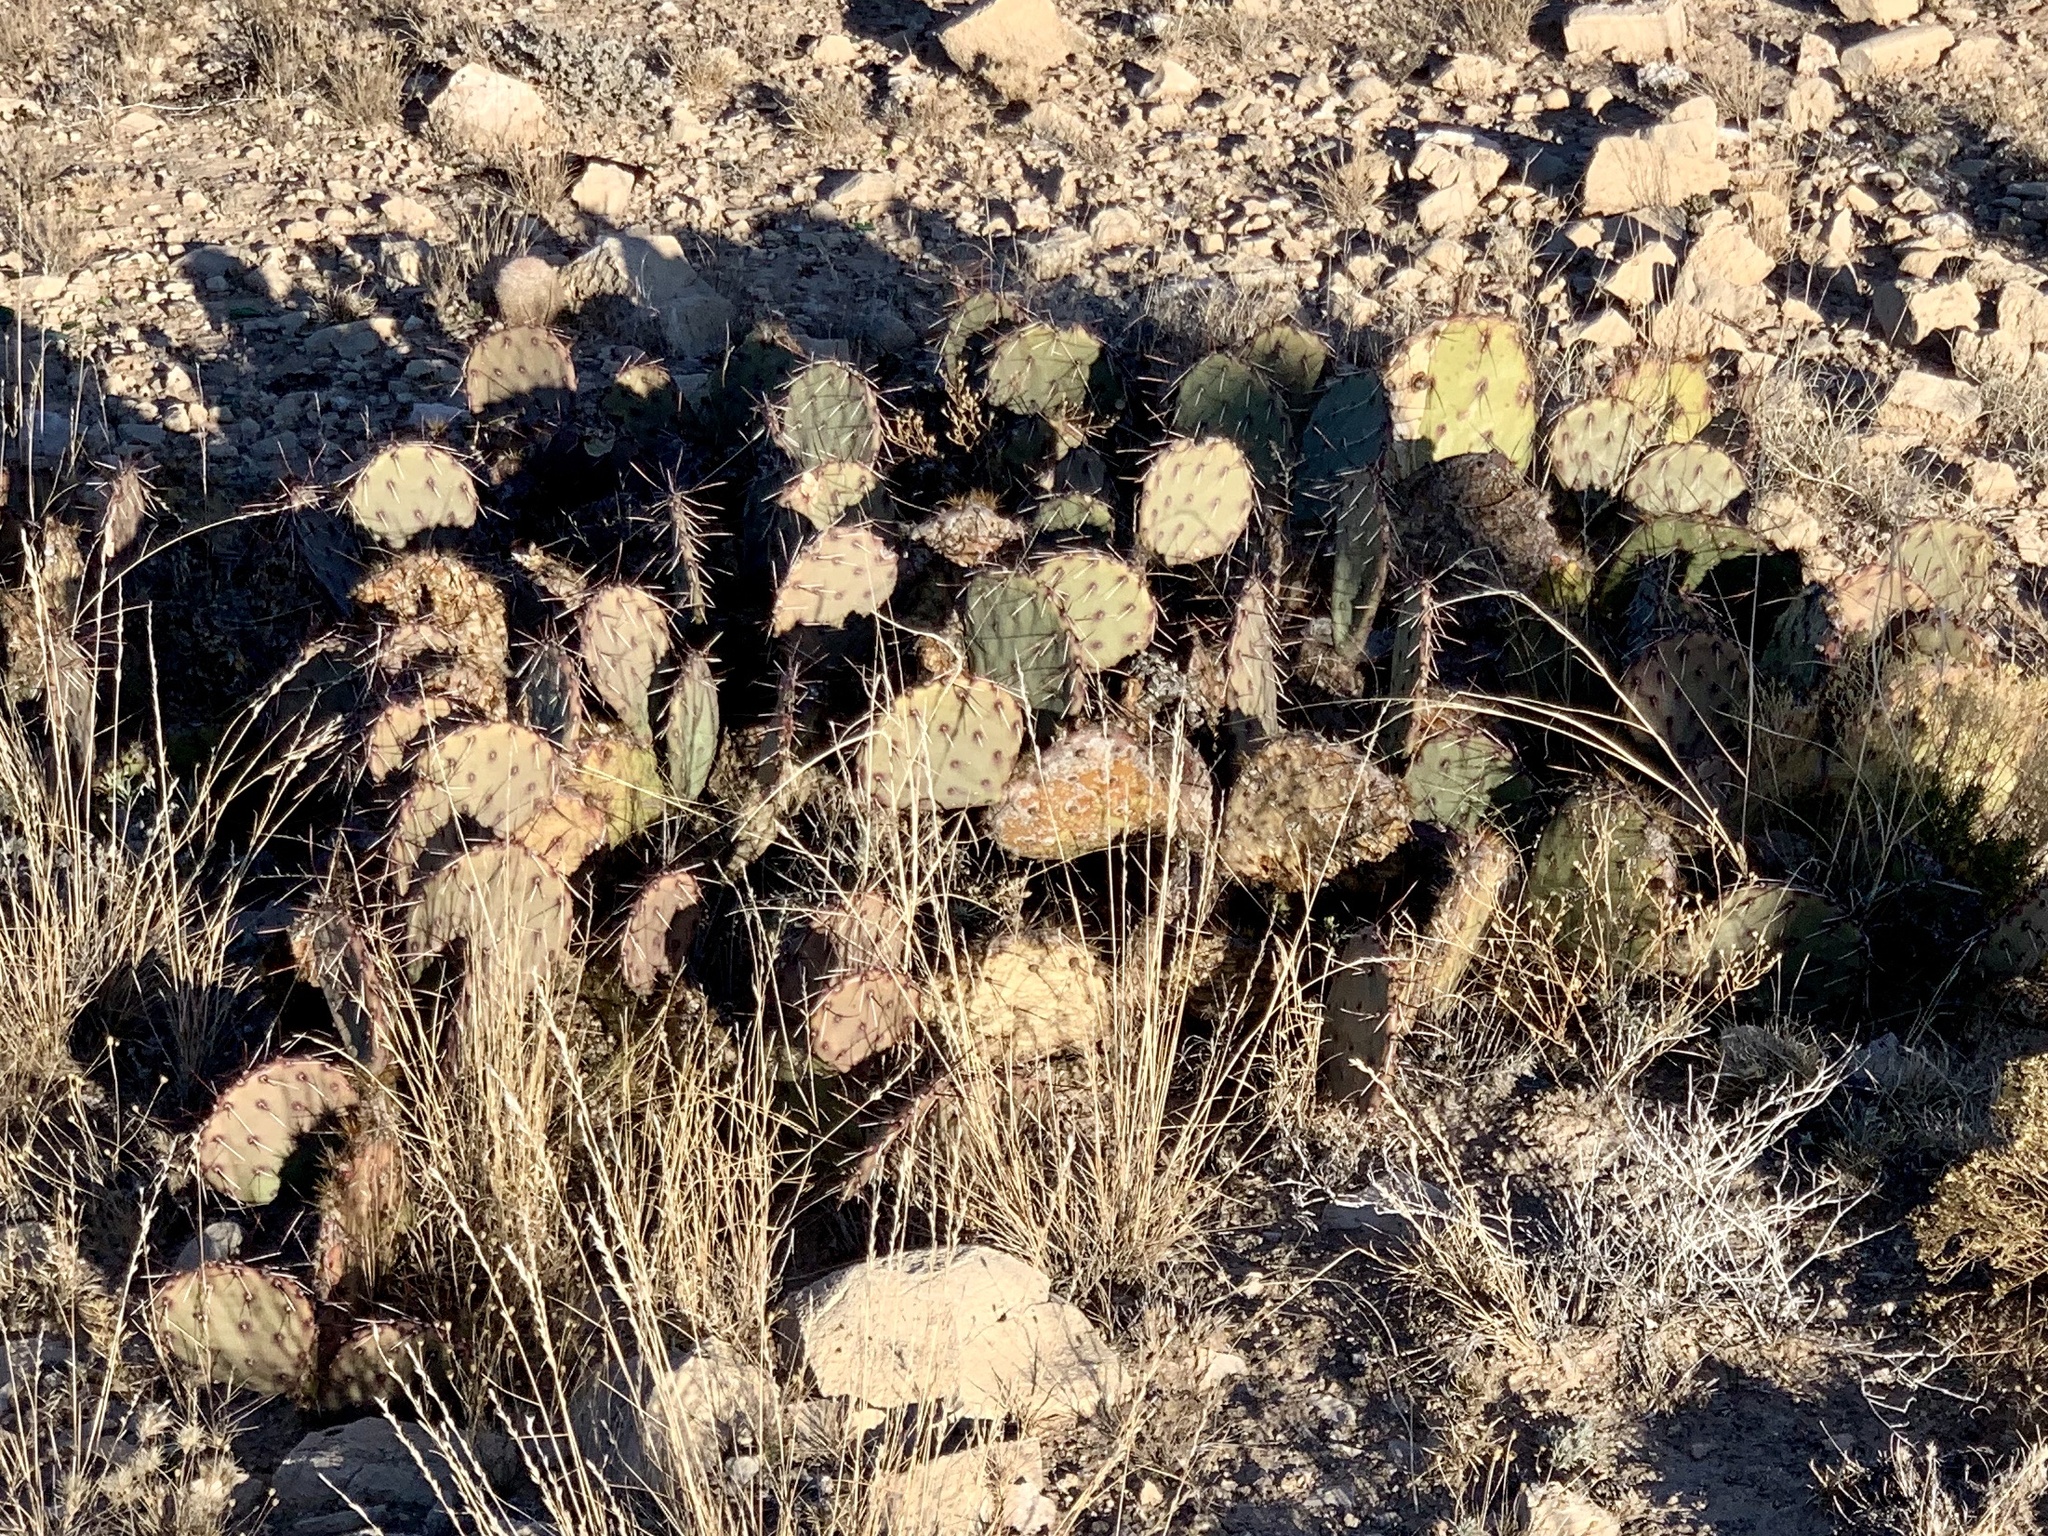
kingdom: Plantae
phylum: Tracheophyta
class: Magnoliopsida
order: Caryophyllales
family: Cactaceae
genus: Opuntia
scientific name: Opuntia phaeacantha
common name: New mexico prickly-pear
